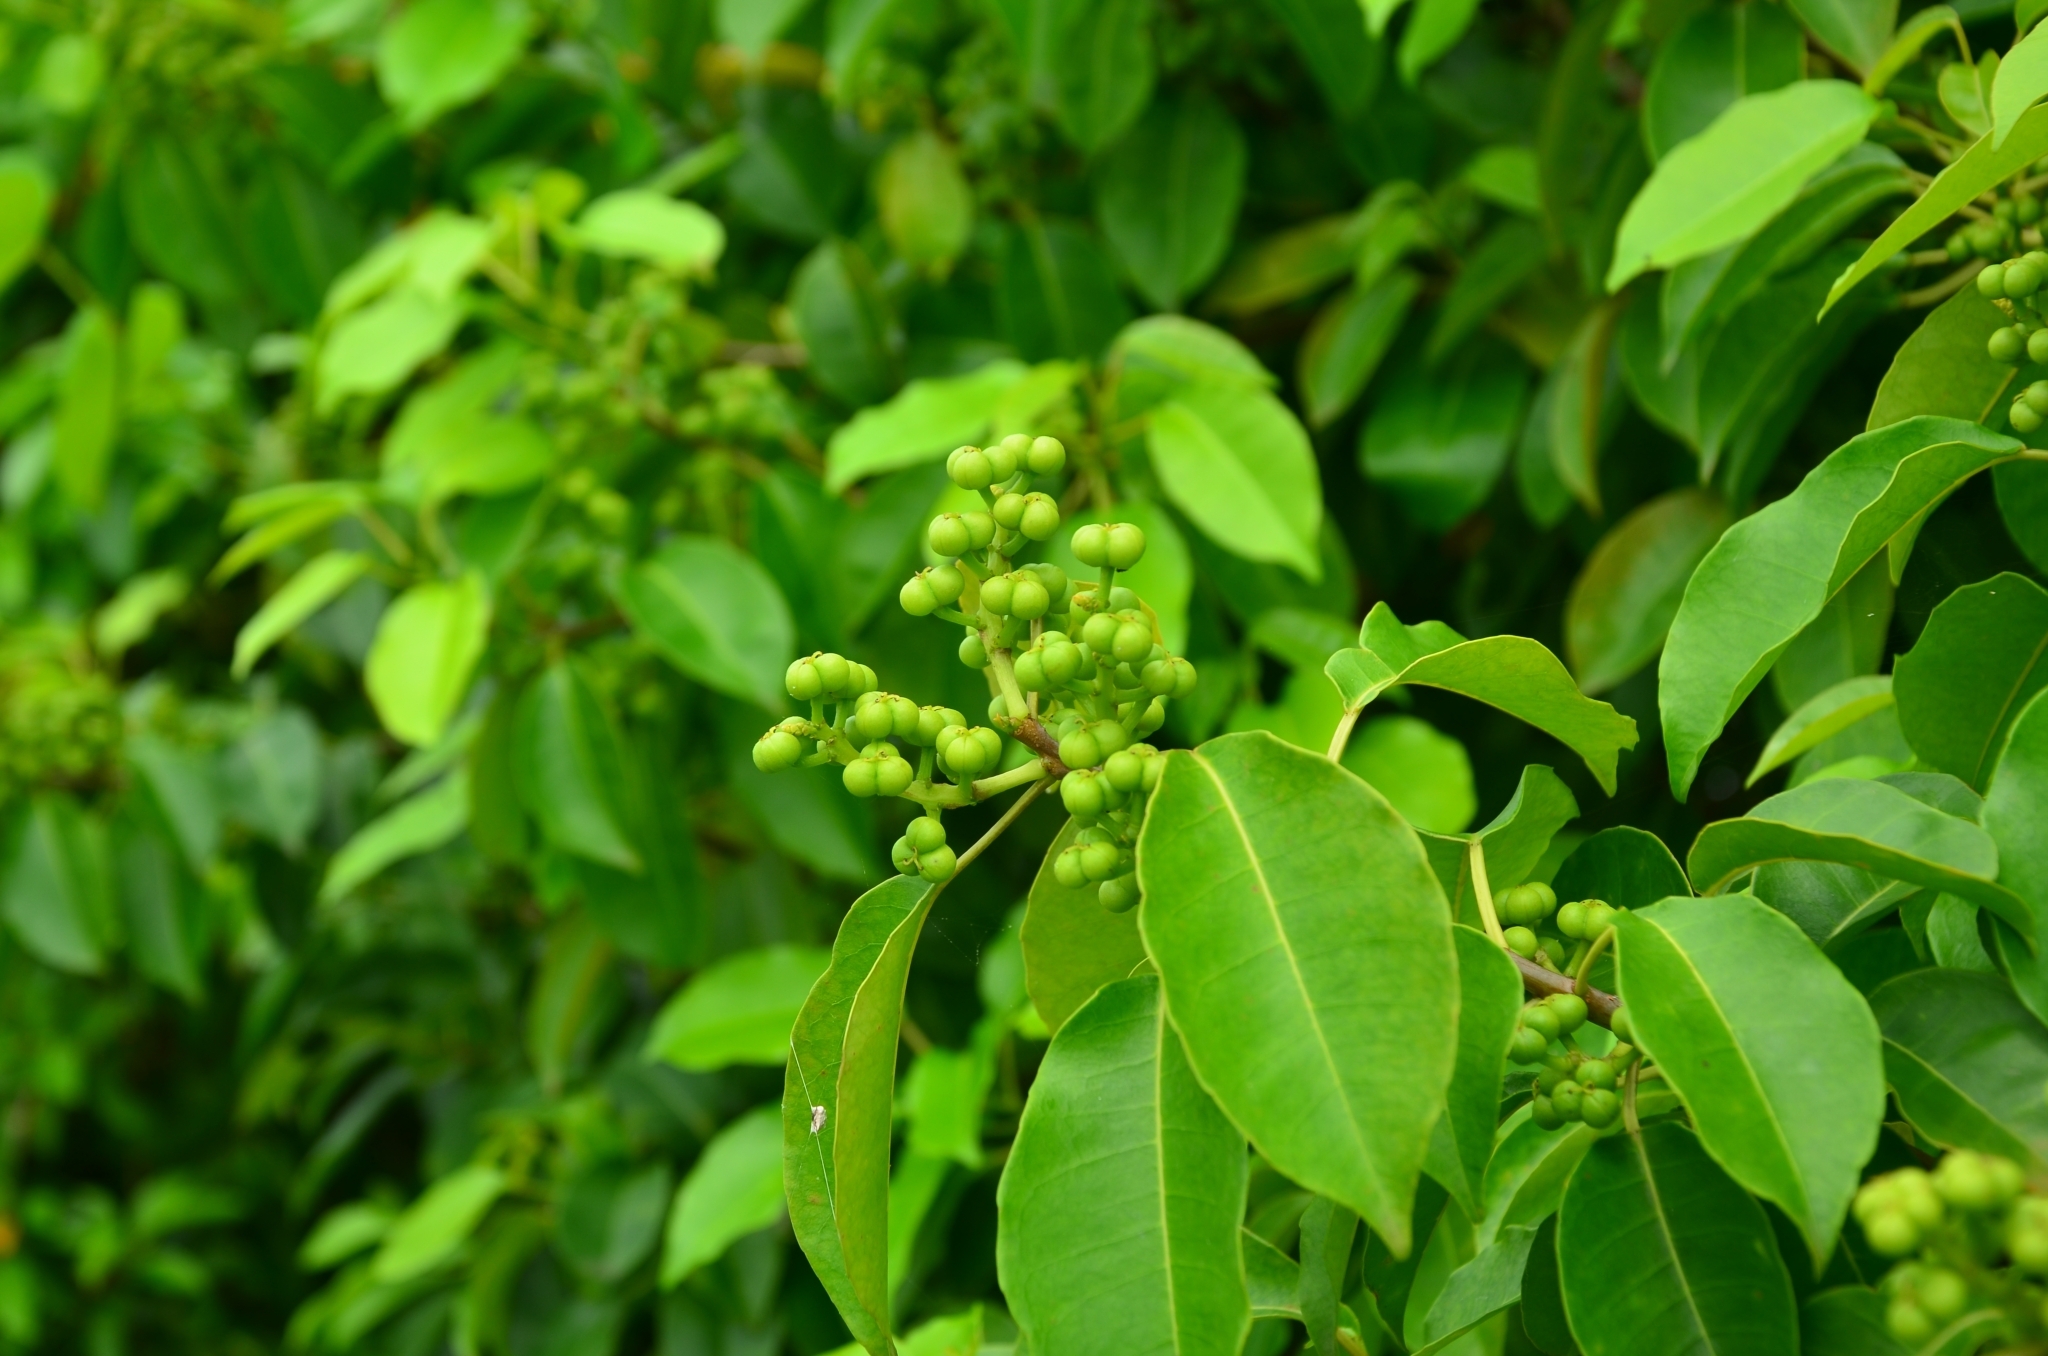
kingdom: Plantae
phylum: Tracheophyta
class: Magnoliopsida
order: Malpighiales
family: Euphorbiaceae
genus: Excoecaria
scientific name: Excoecaria agallocha
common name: River poisontree
